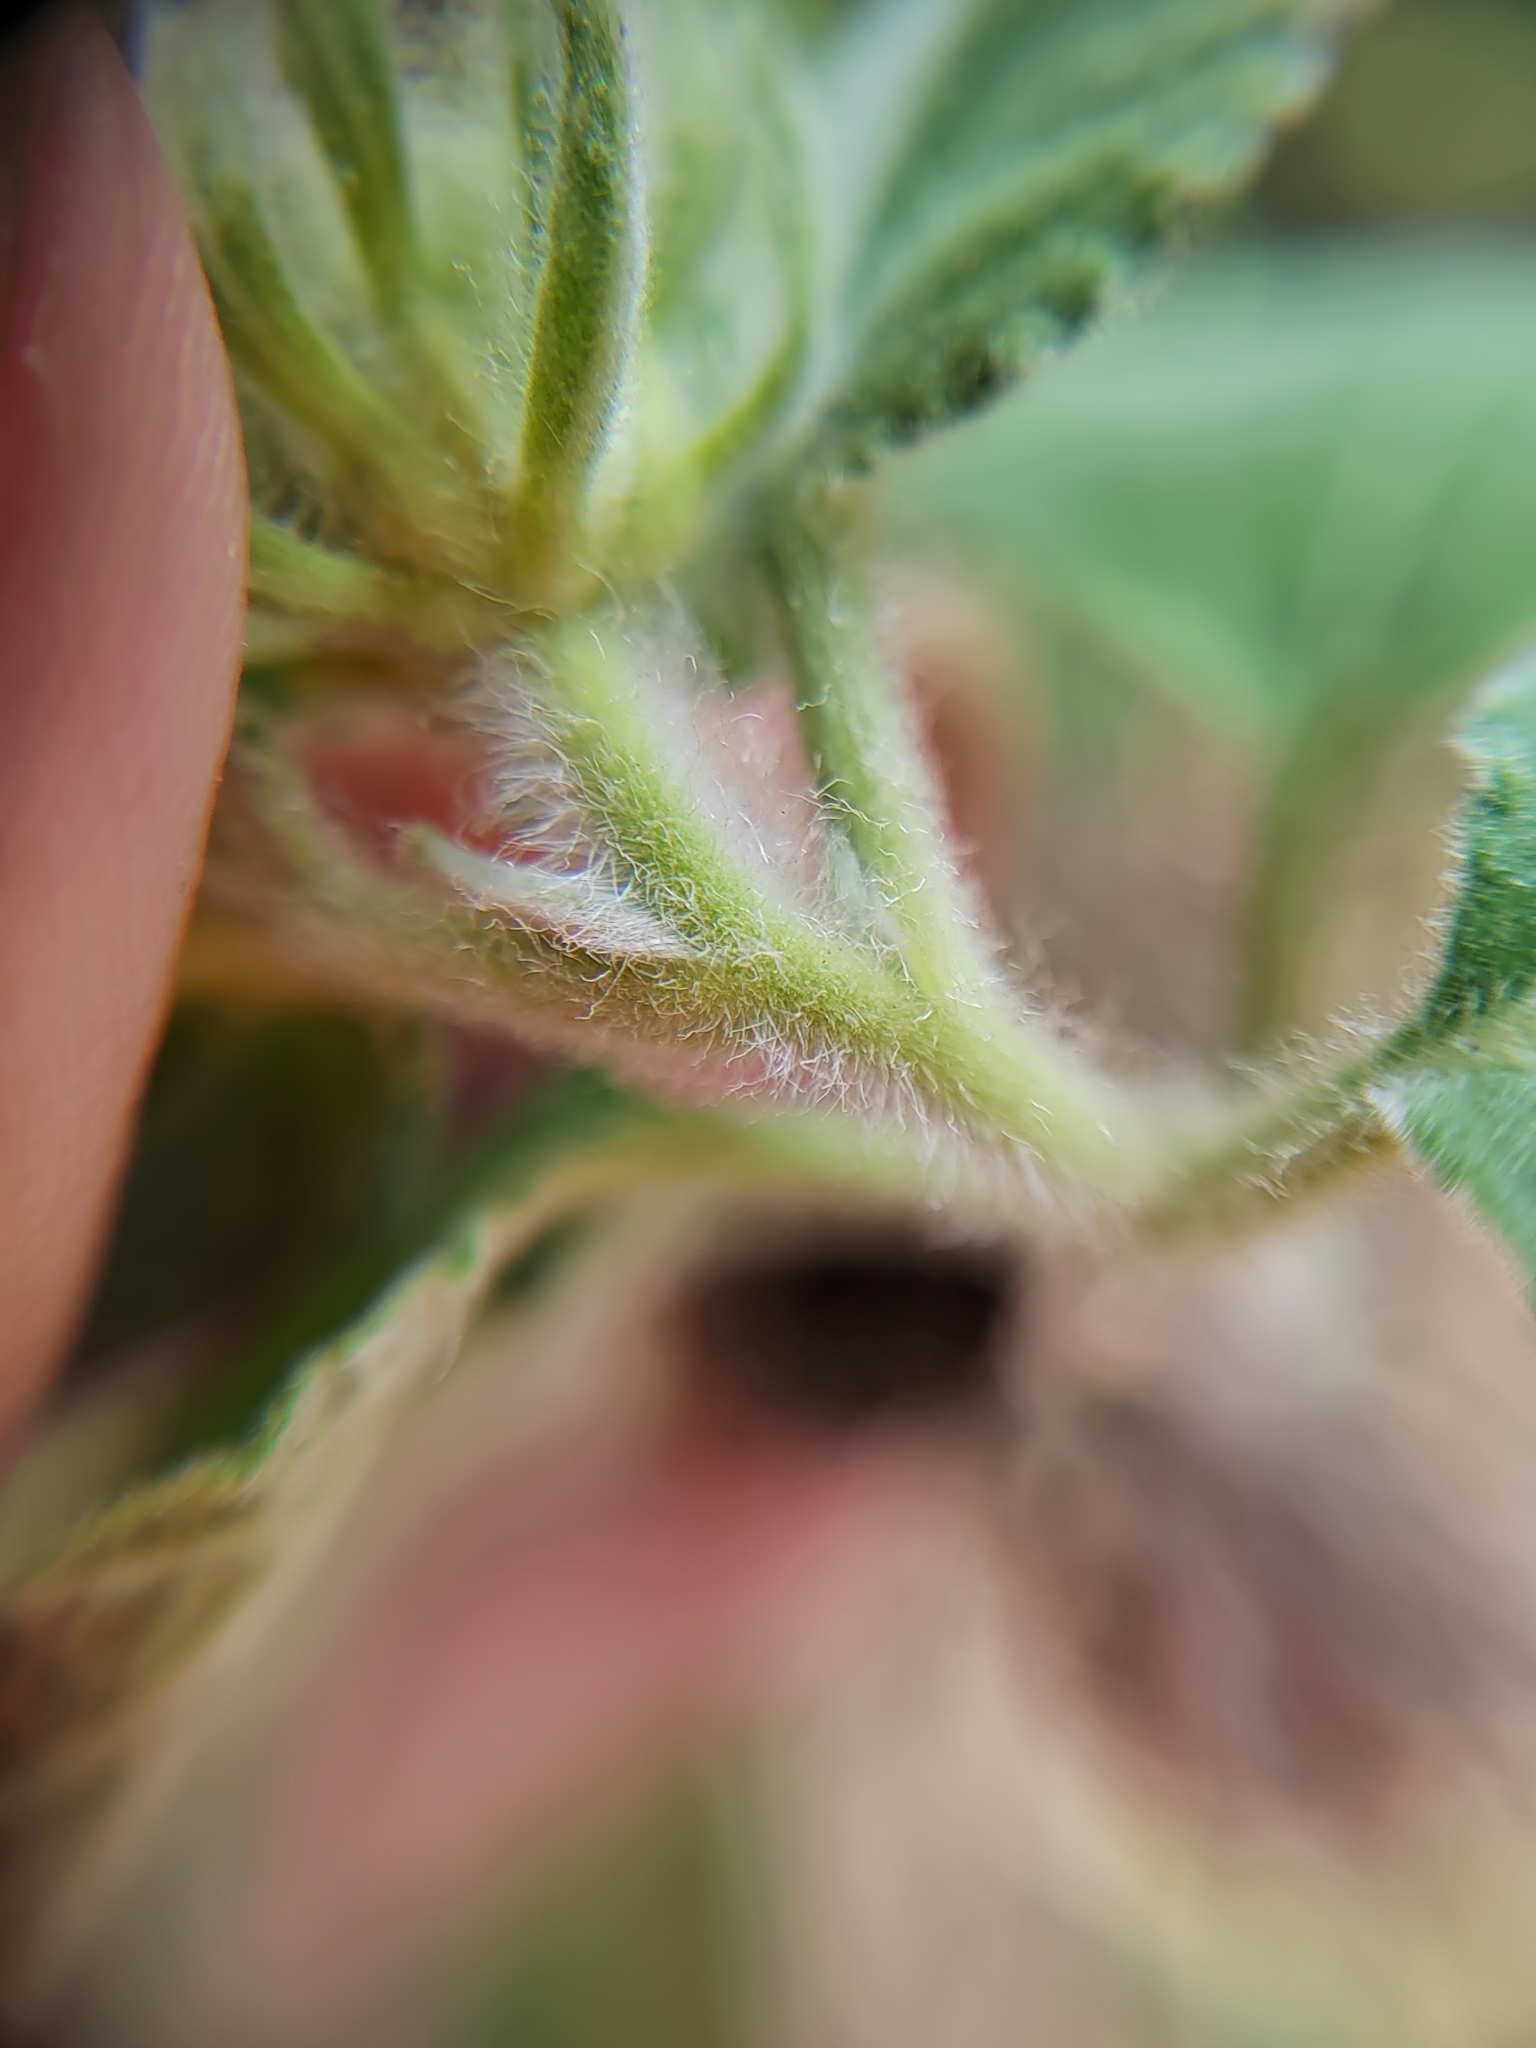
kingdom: Plantae
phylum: Tracheophyta
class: Magnoliopsida
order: Asterales
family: Asteraceae
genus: Vigethia
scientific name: Vigethia mexicana
